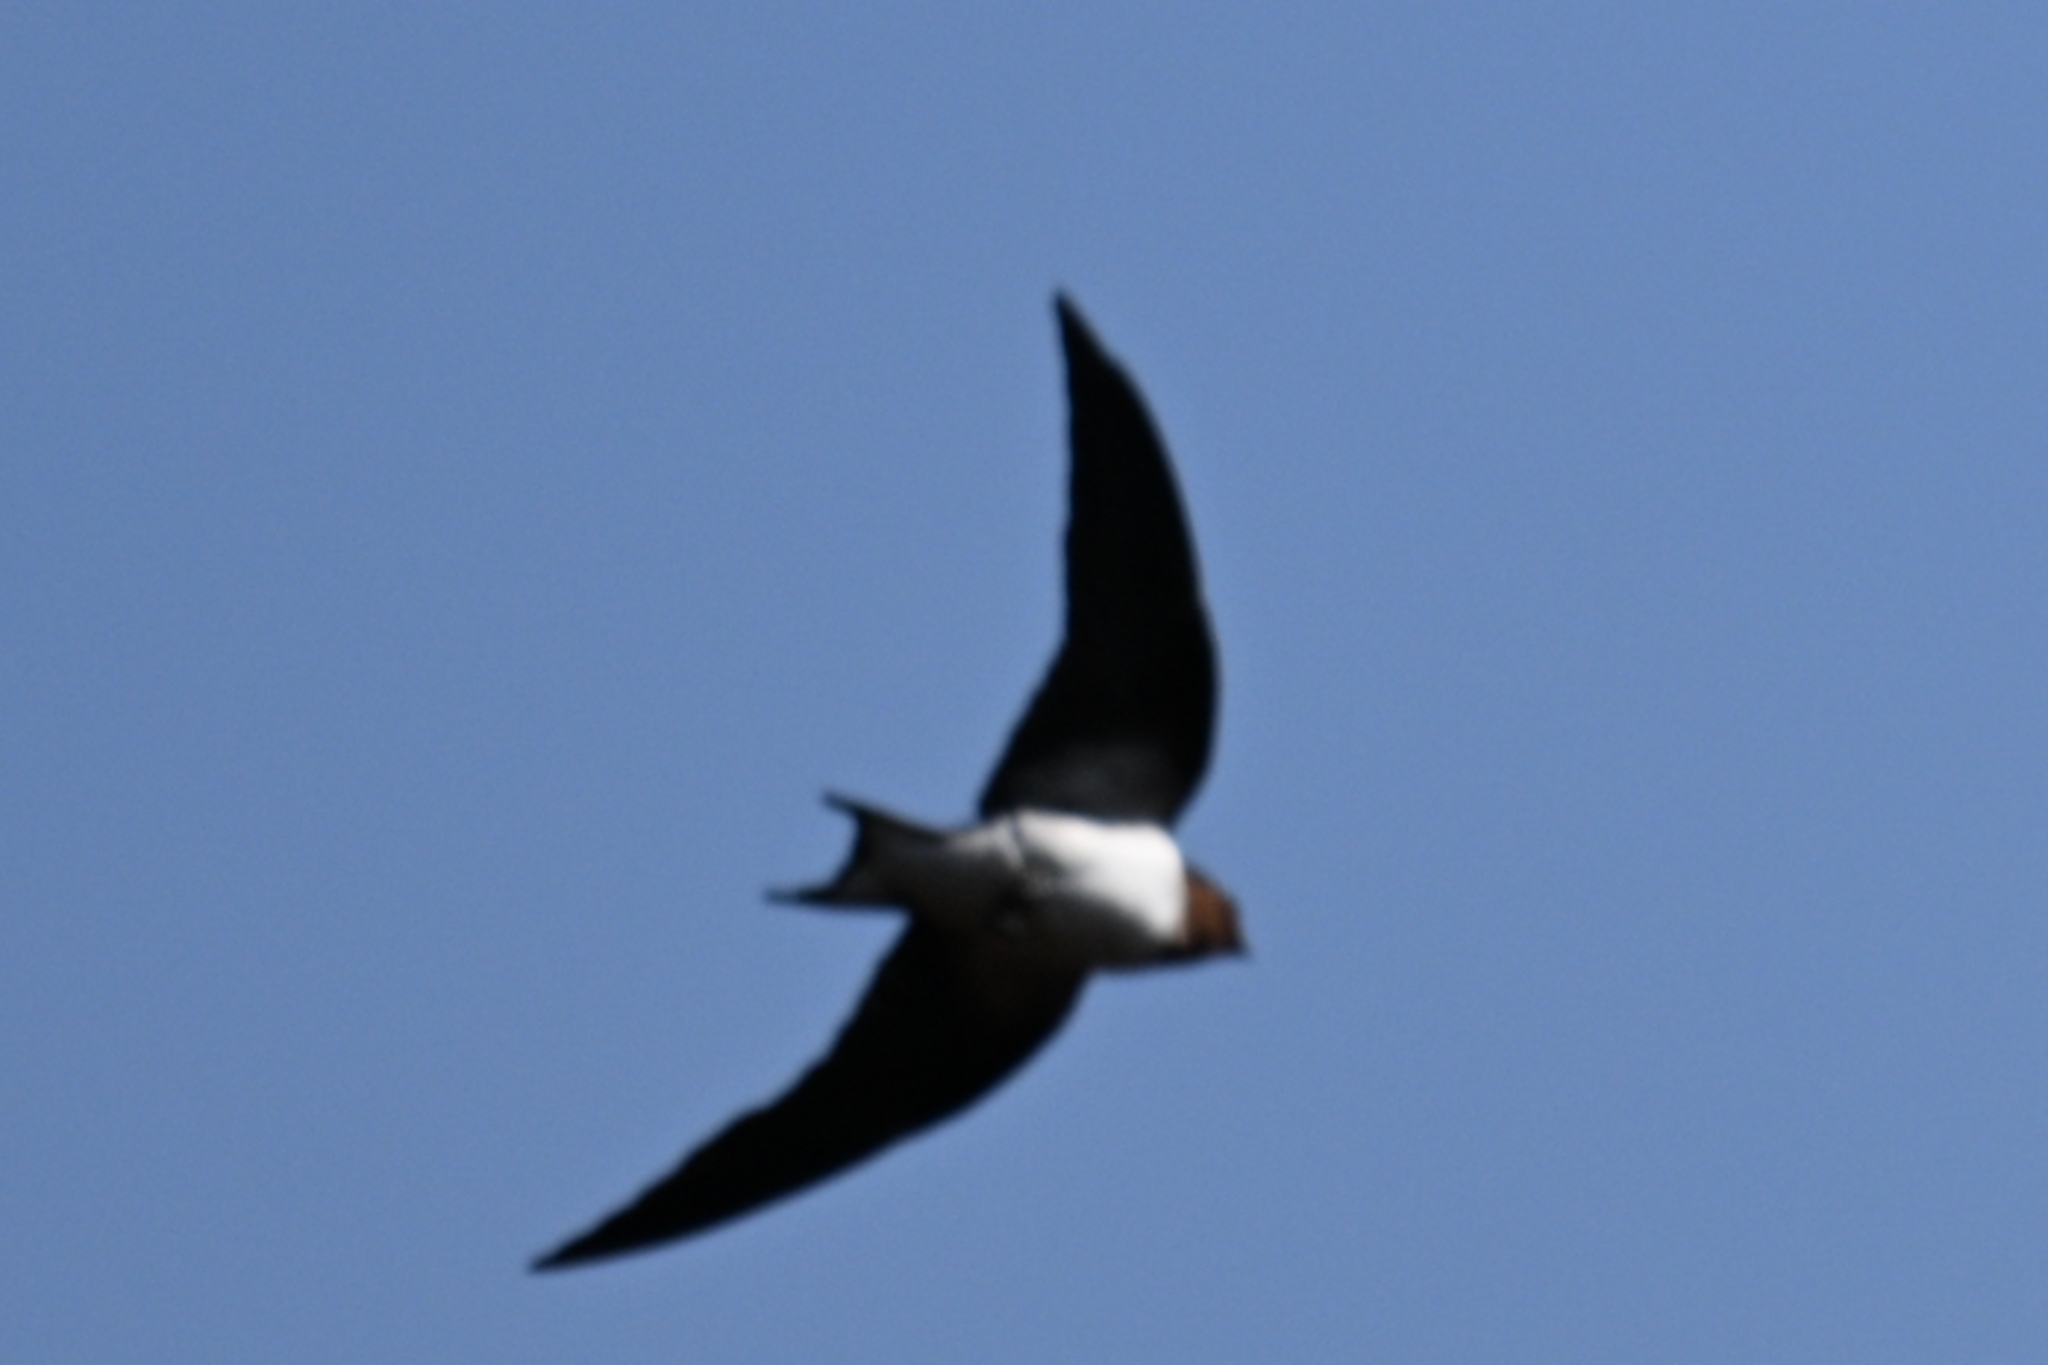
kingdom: Animalia
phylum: Chordata
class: Aves
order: Passeriformes
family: Hirundinidae
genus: Hirundo
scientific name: Hirundo lucida
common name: Red-chested swallow
